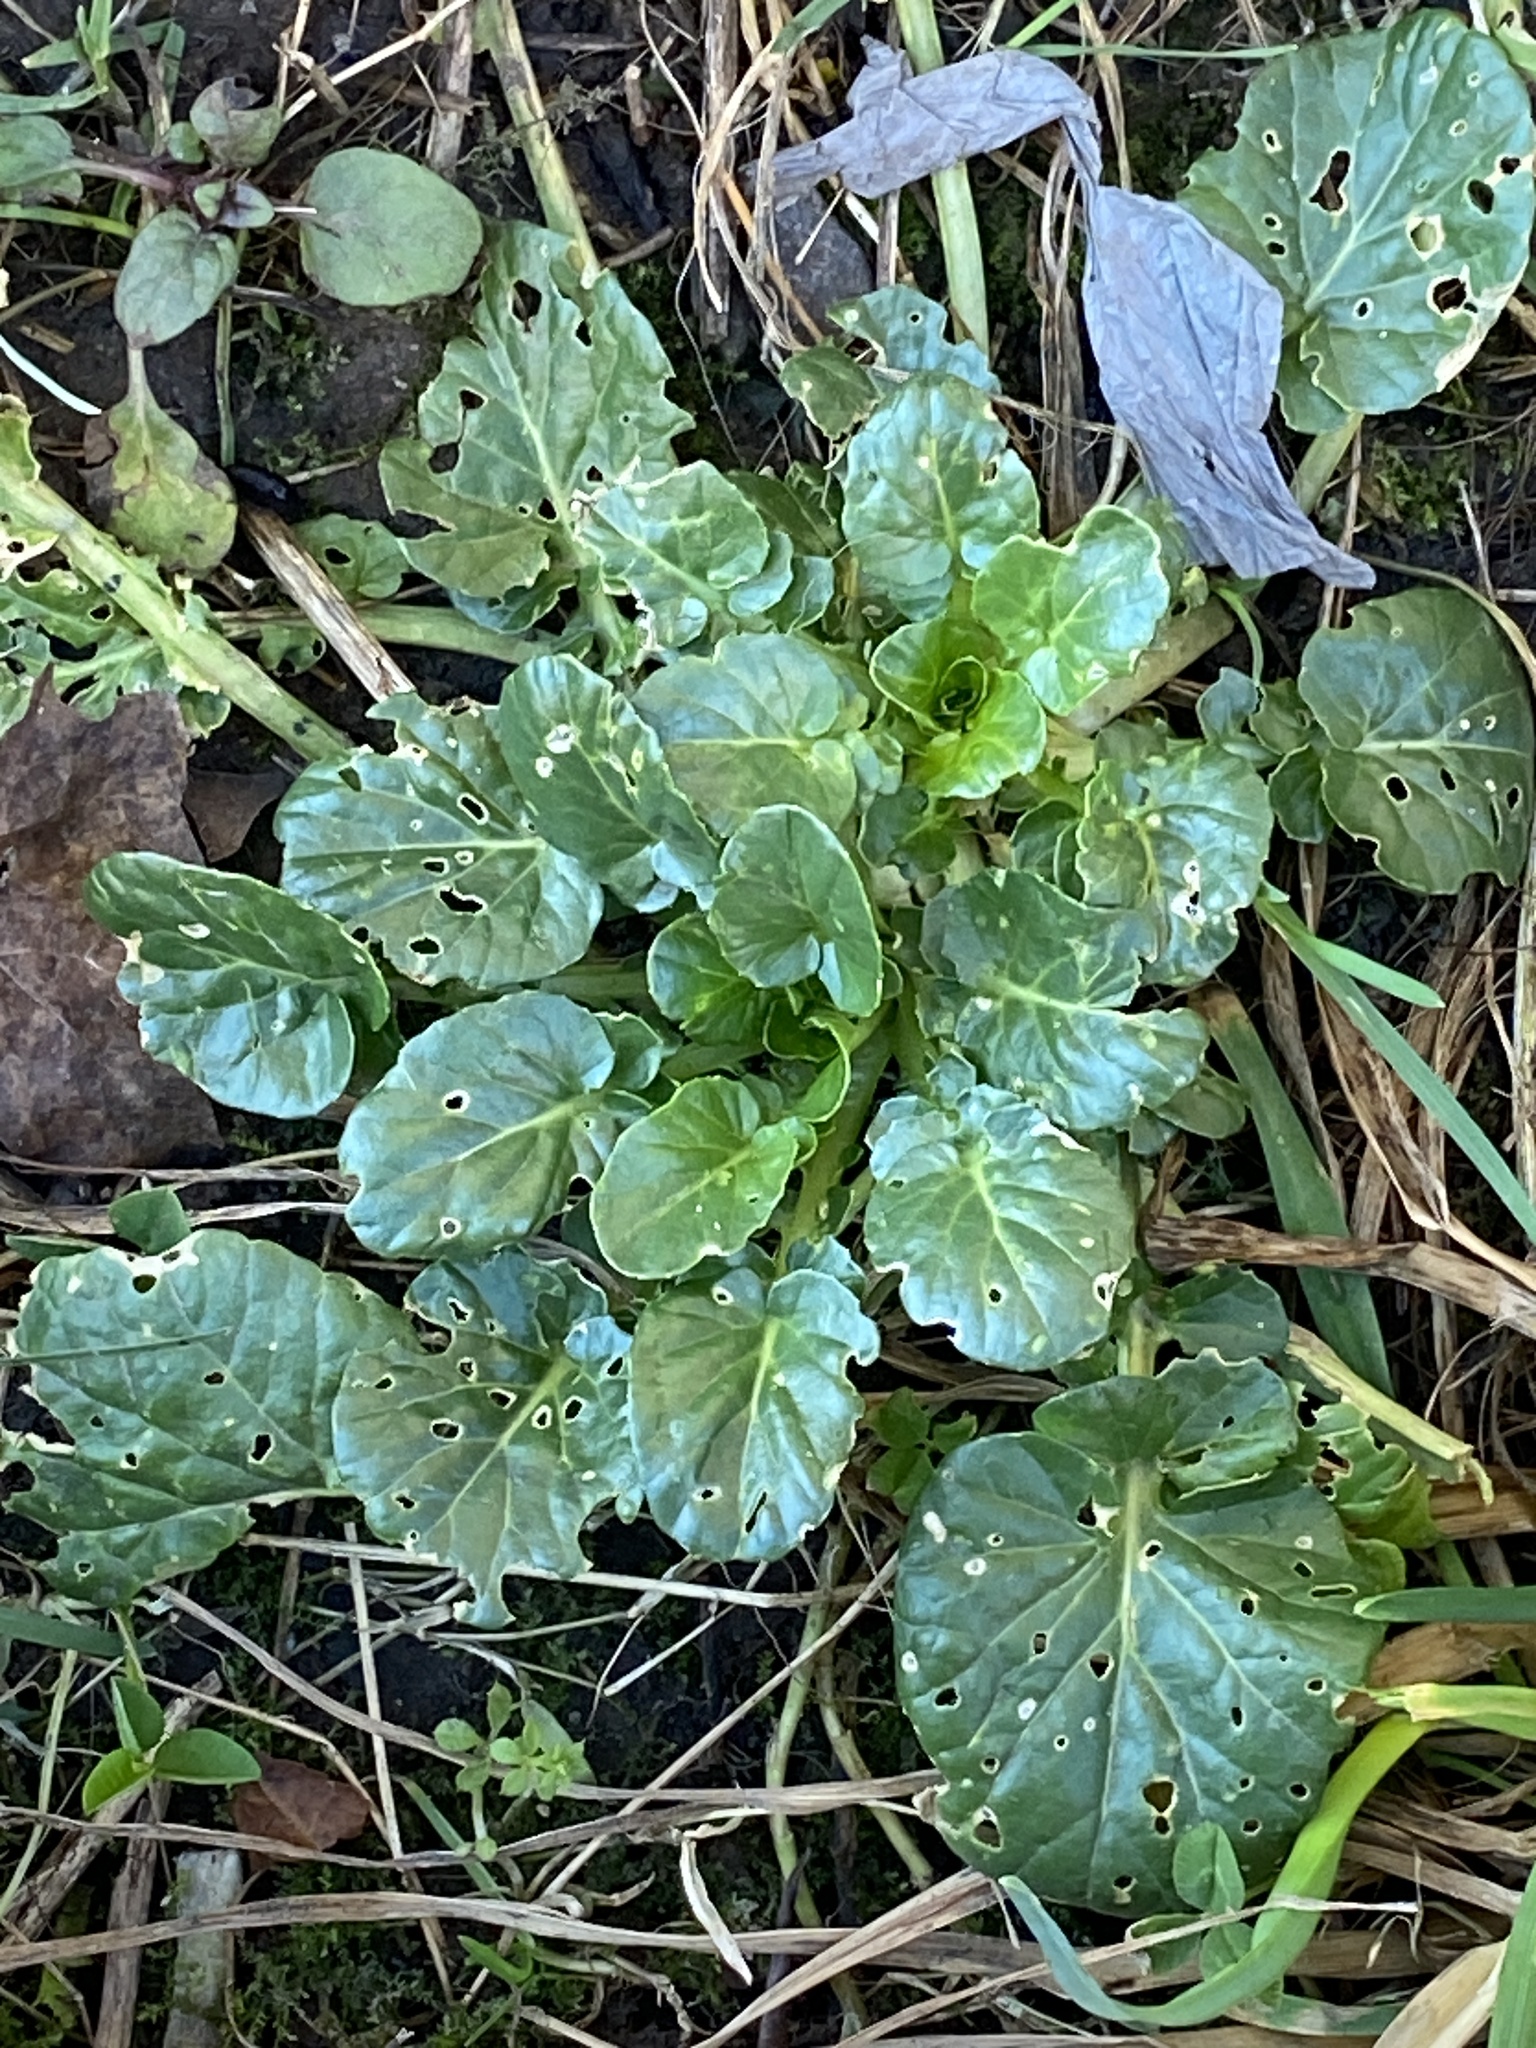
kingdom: Plantae
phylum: Tracheophyta
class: Magnoliopsida
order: Brassicales
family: Brassicaceae
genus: Barbarea
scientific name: Barbarea vulgaris
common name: Cressy-greens
